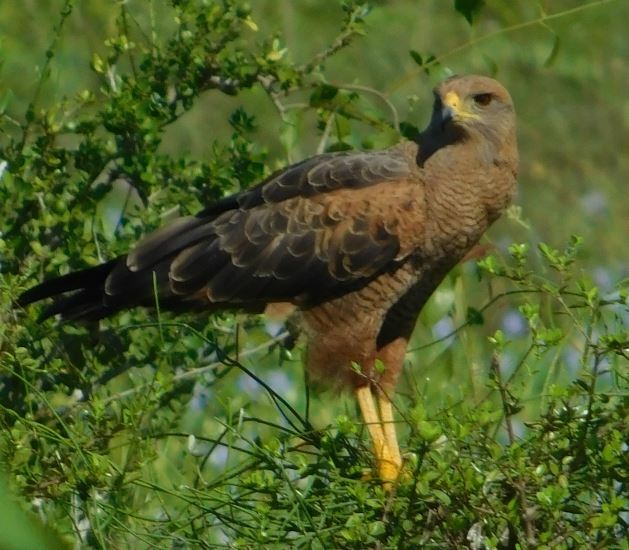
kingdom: Animalia
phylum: Chordata
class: Aves
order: Accipitriformes
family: Accipitridae
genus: Buteogallus
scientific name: Buteogallus meridionalis
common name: Savanna hawk
